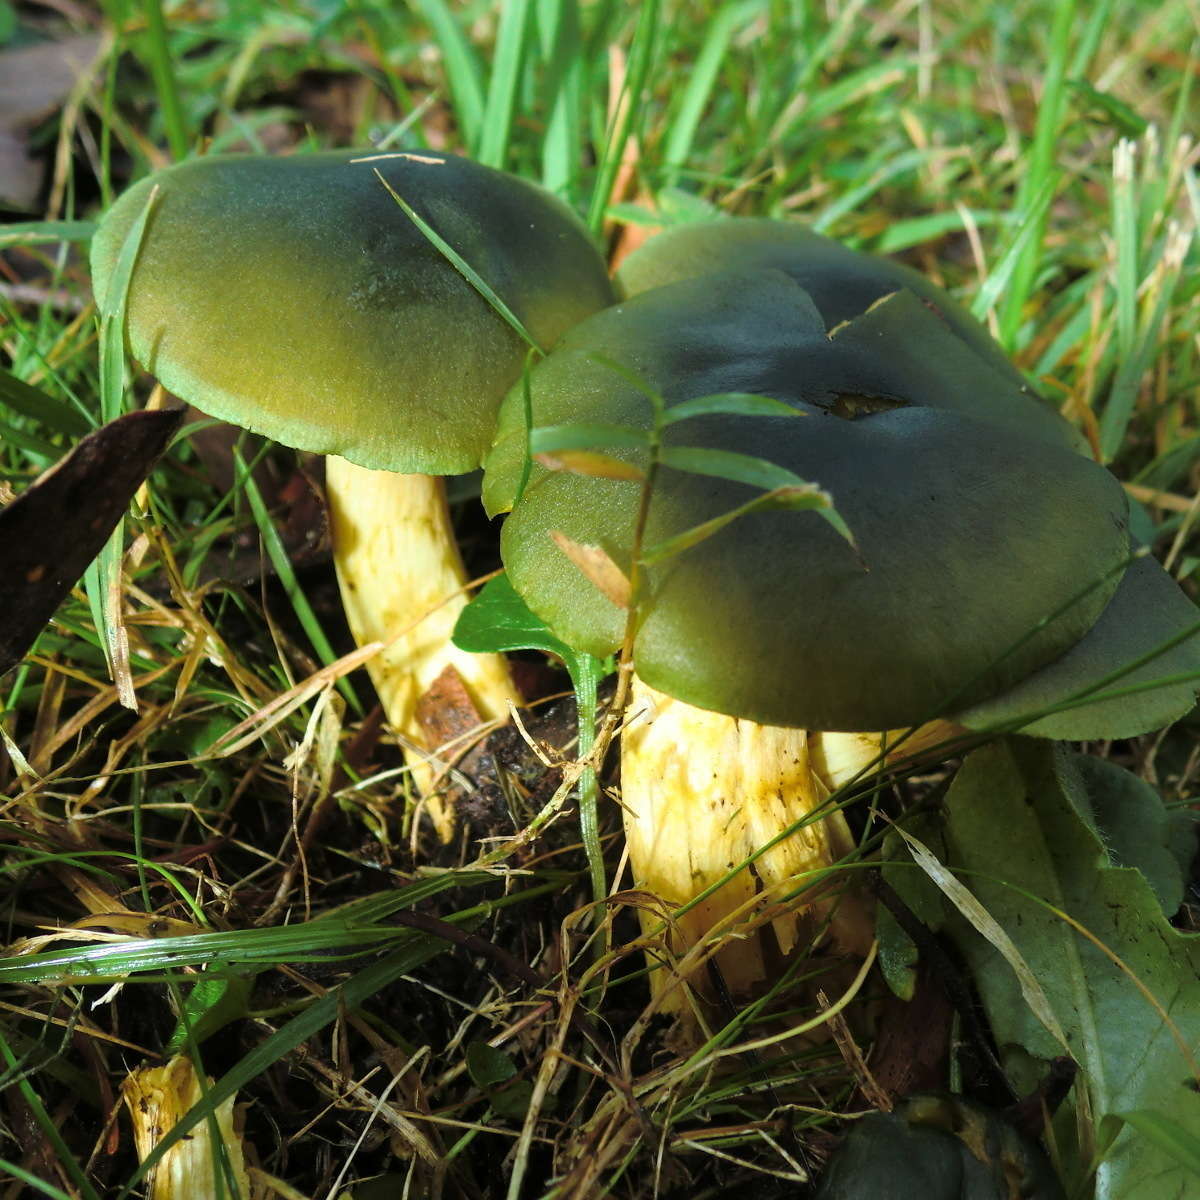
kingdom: Fungi
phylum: Basidiomycota
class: Agaricomycetes
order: Agaricales
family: Cortinariaceae
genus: Cortinarius
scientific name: Cortinarius austrovenetus
